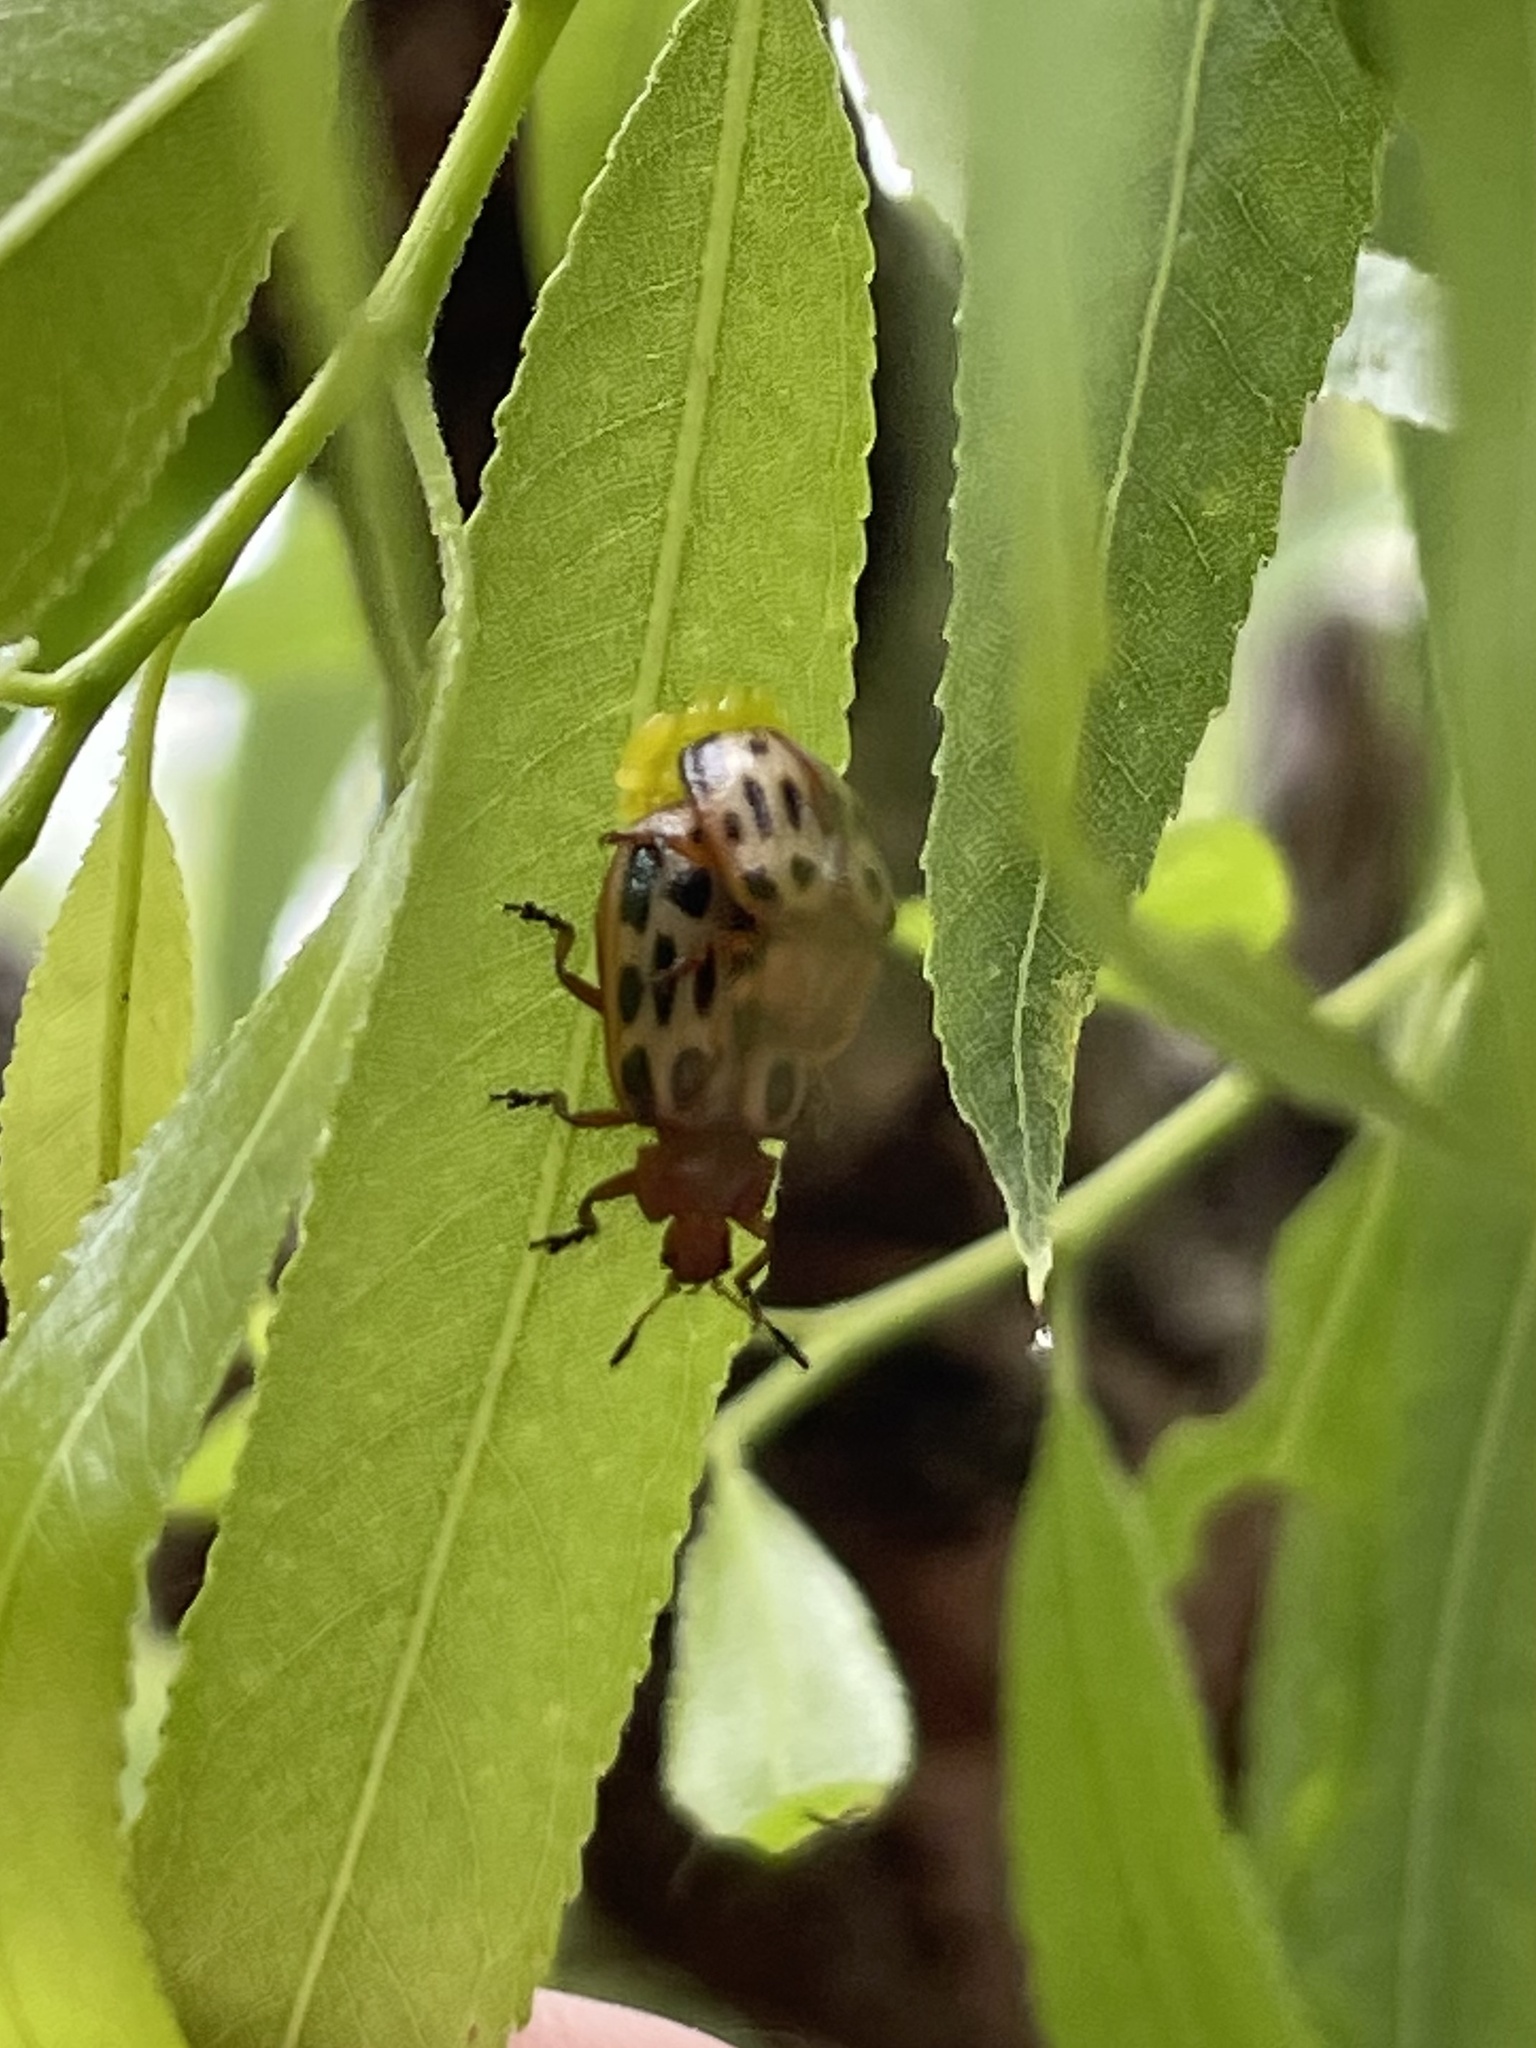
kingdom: Animalia
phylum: Arthropoda
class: Insecta
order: Coleoptera
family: Chrysomelidae
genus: Chrysomela
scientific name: Chrysomela texana
